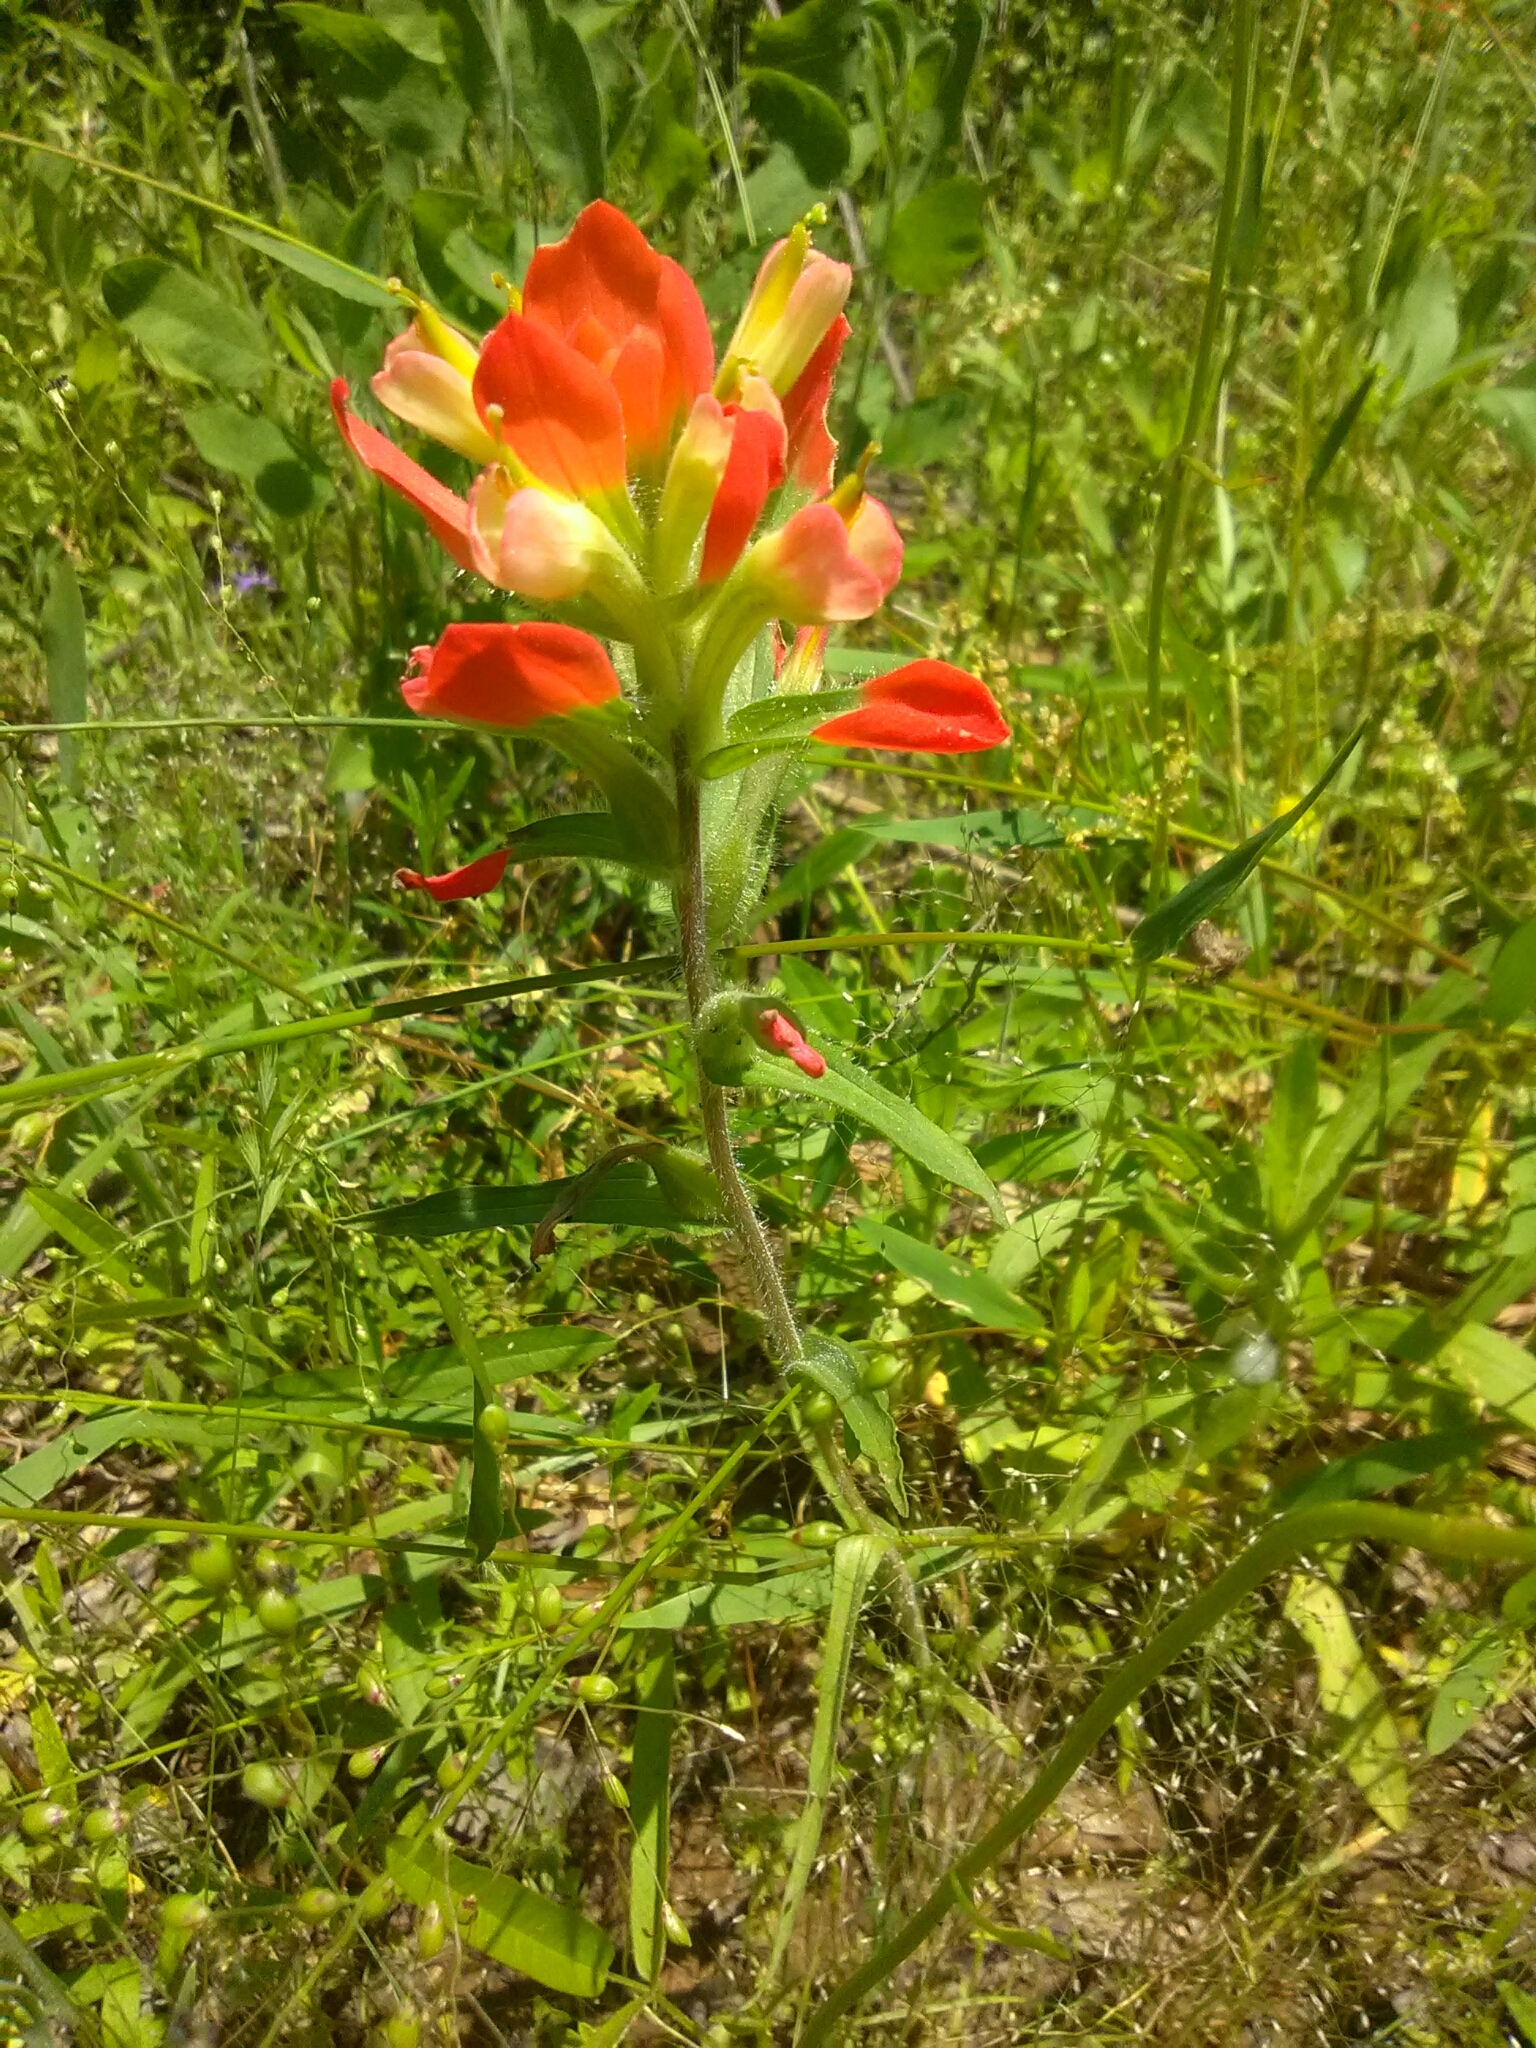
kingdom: Plantae
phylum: Tracheophyta
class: Magnoliopsida
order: Lamiales
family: Orobanchaceae
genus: Castilleja
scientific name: Castilleja indivisa
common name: Texas paintbrush
